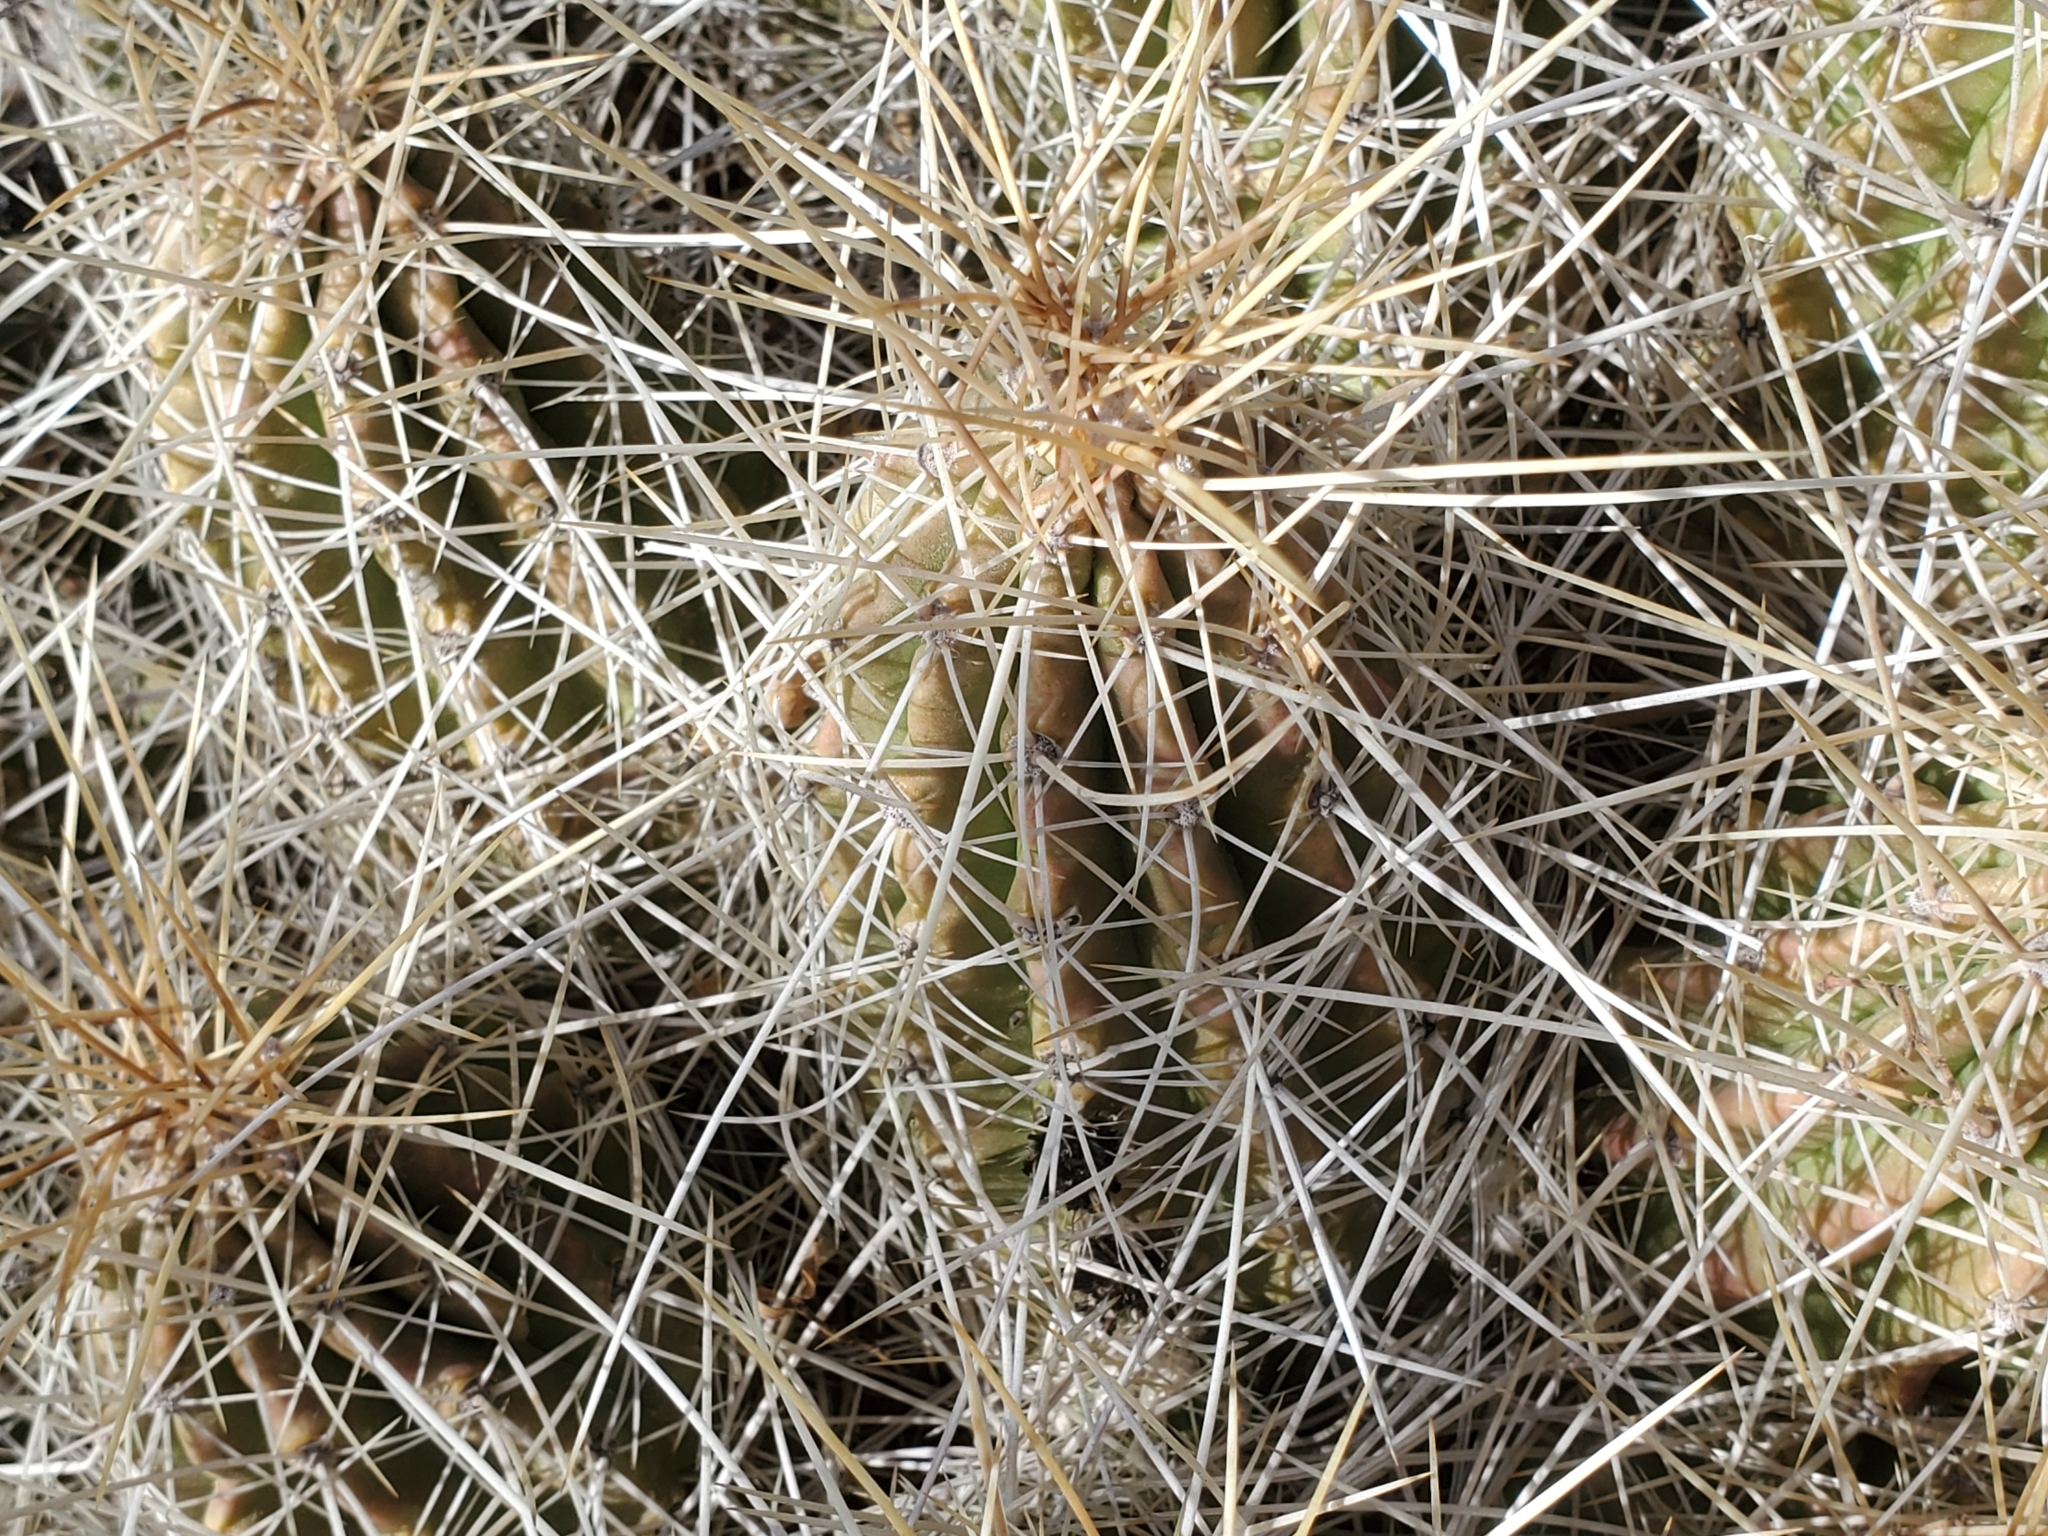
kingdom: Plantae
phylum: Tracheophyta
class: Magnoliopsida
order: Caryophyllales
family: Cactaceae
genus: Echinocereus
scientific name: Echinocereus stramineus
